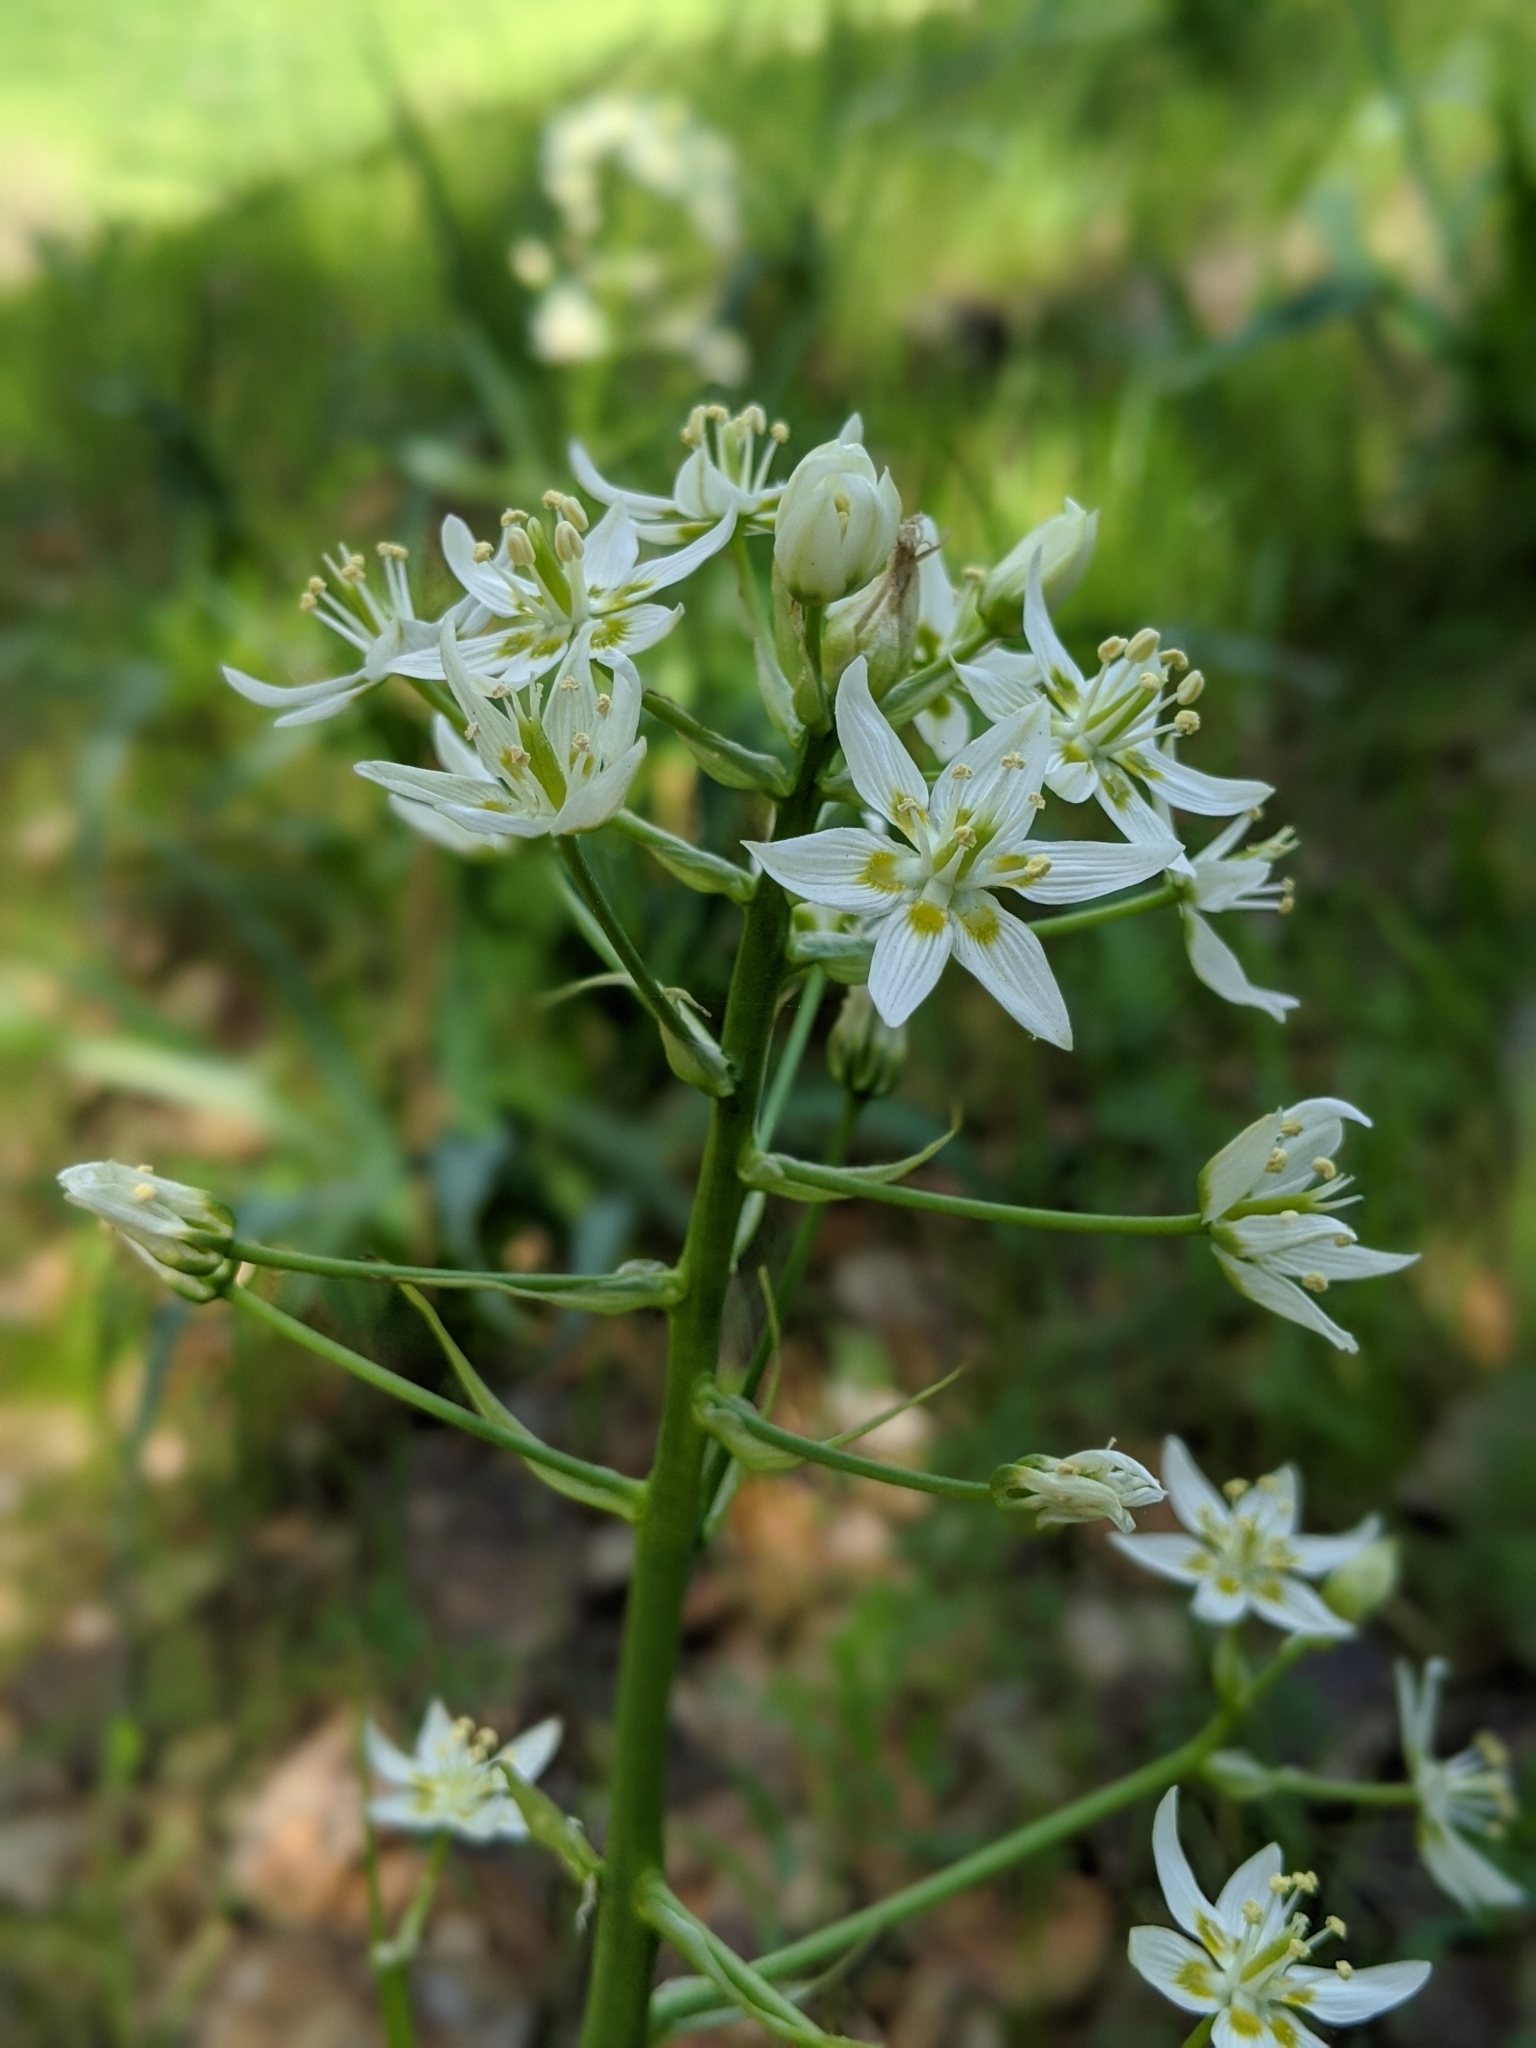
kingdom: Plantae
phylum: Tracheophyta
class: Liliopsida
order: Liliales
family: Melanthiaceae
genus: Toxicoscordion
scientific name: Toxicoscordion fremontii
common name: Fremont's death camas
